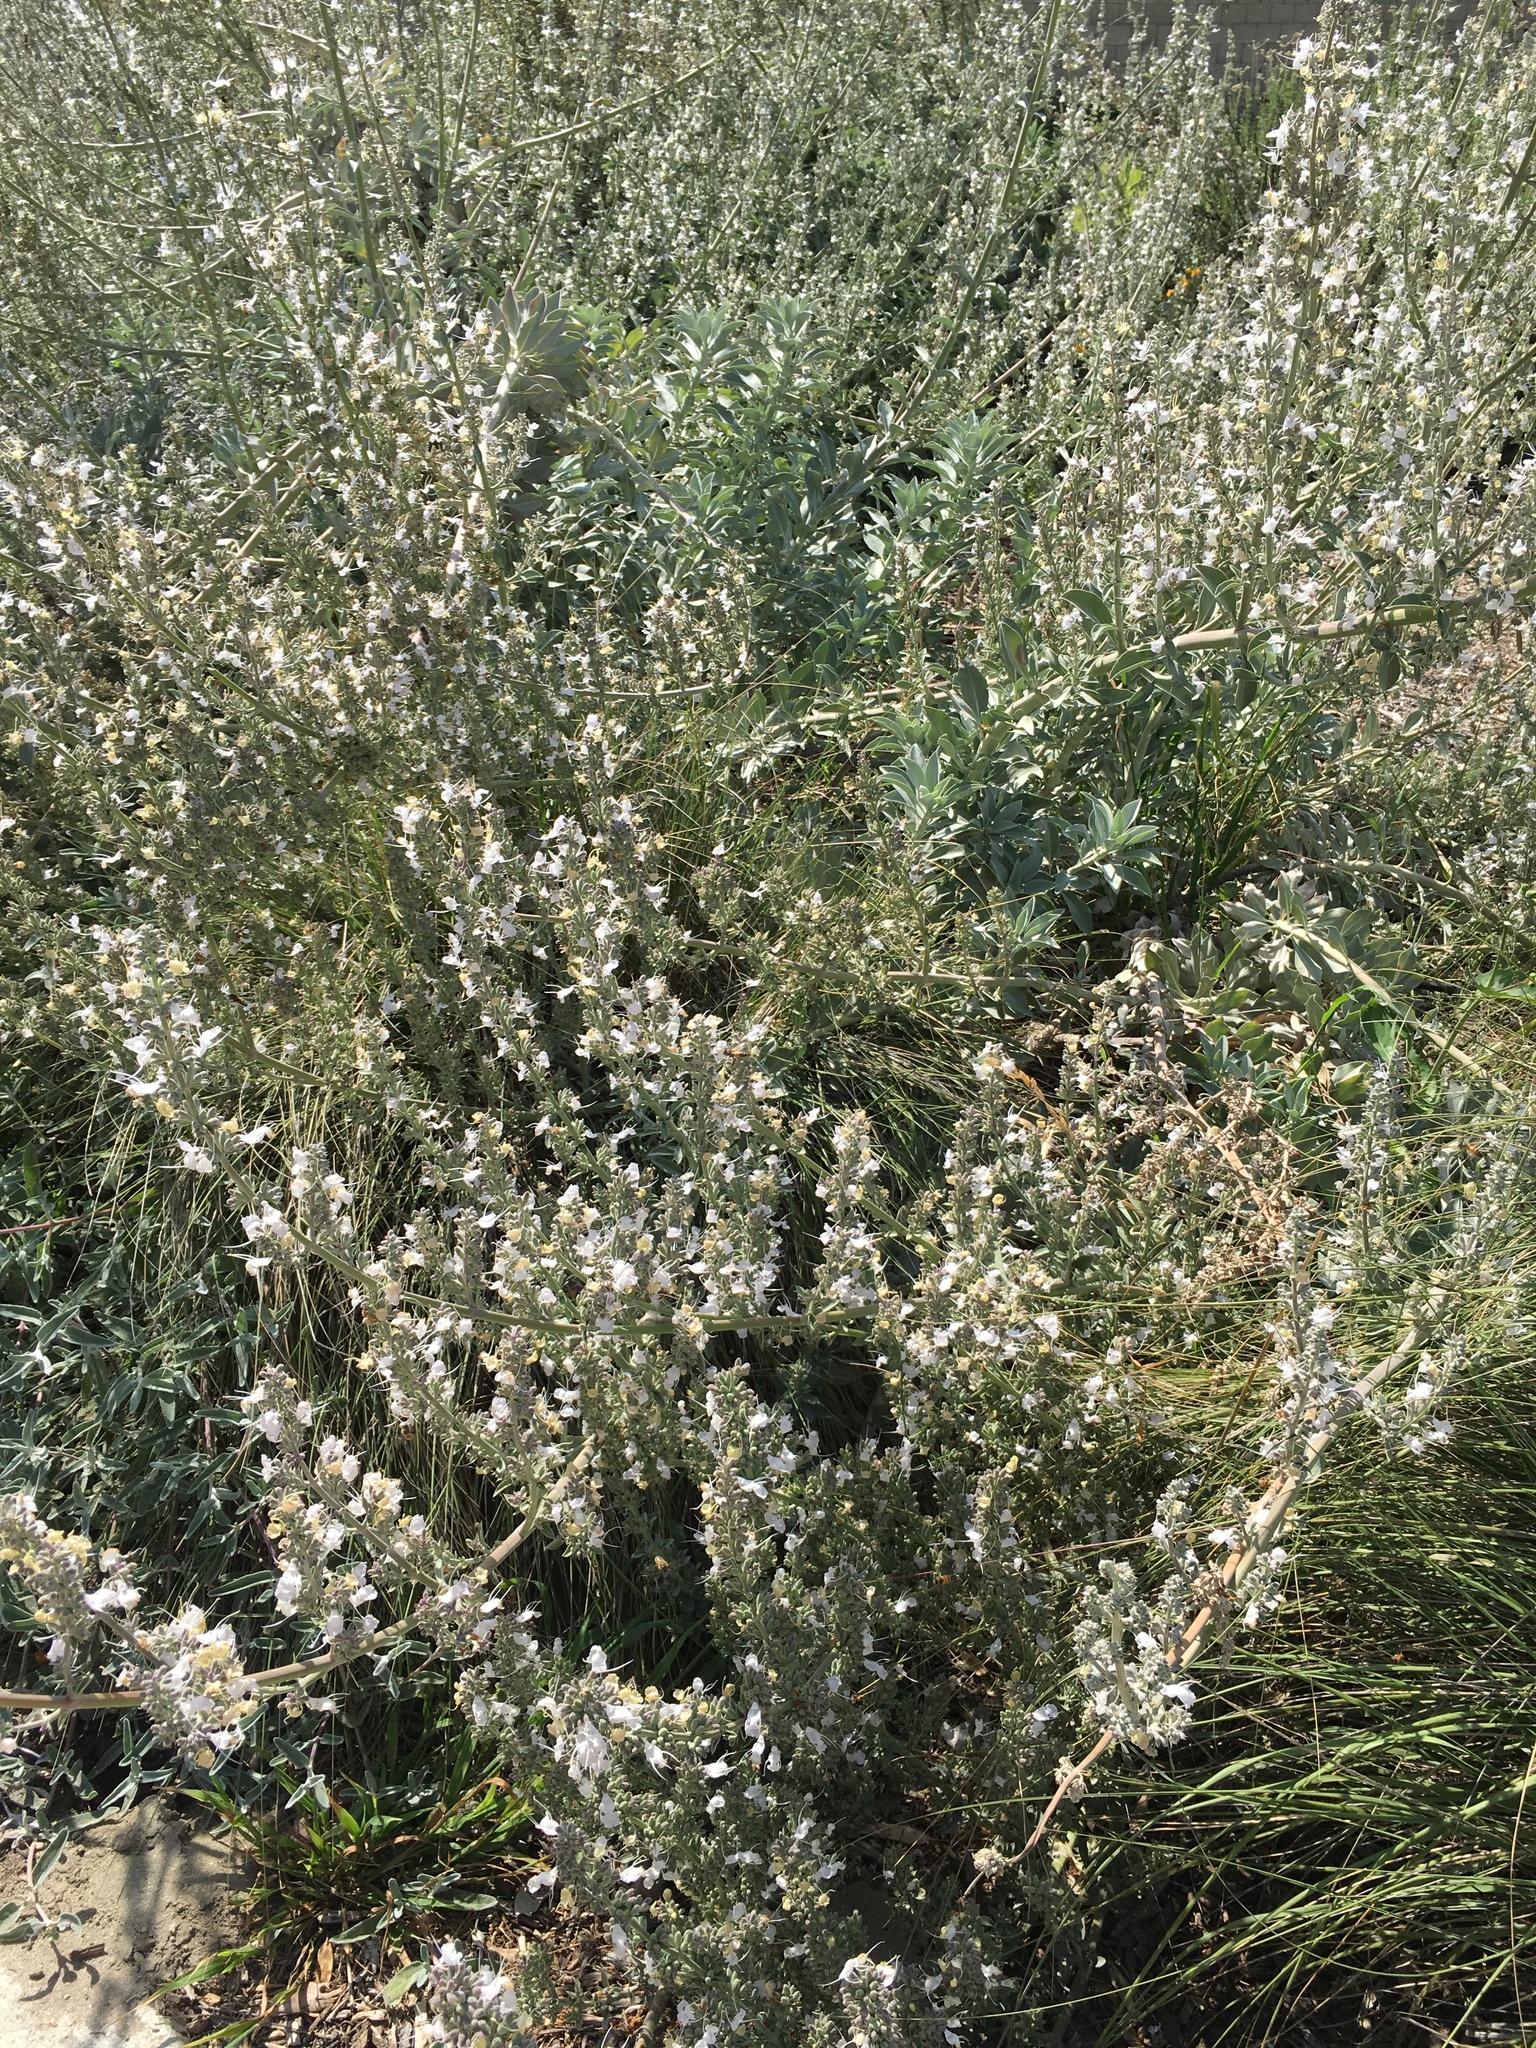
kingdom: Plantae
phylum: Tracheophyta
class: Magnoliopsida
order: Lamiales
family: Lamiaceae
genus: Salvia
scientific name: Salvia apiana
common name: White sage
